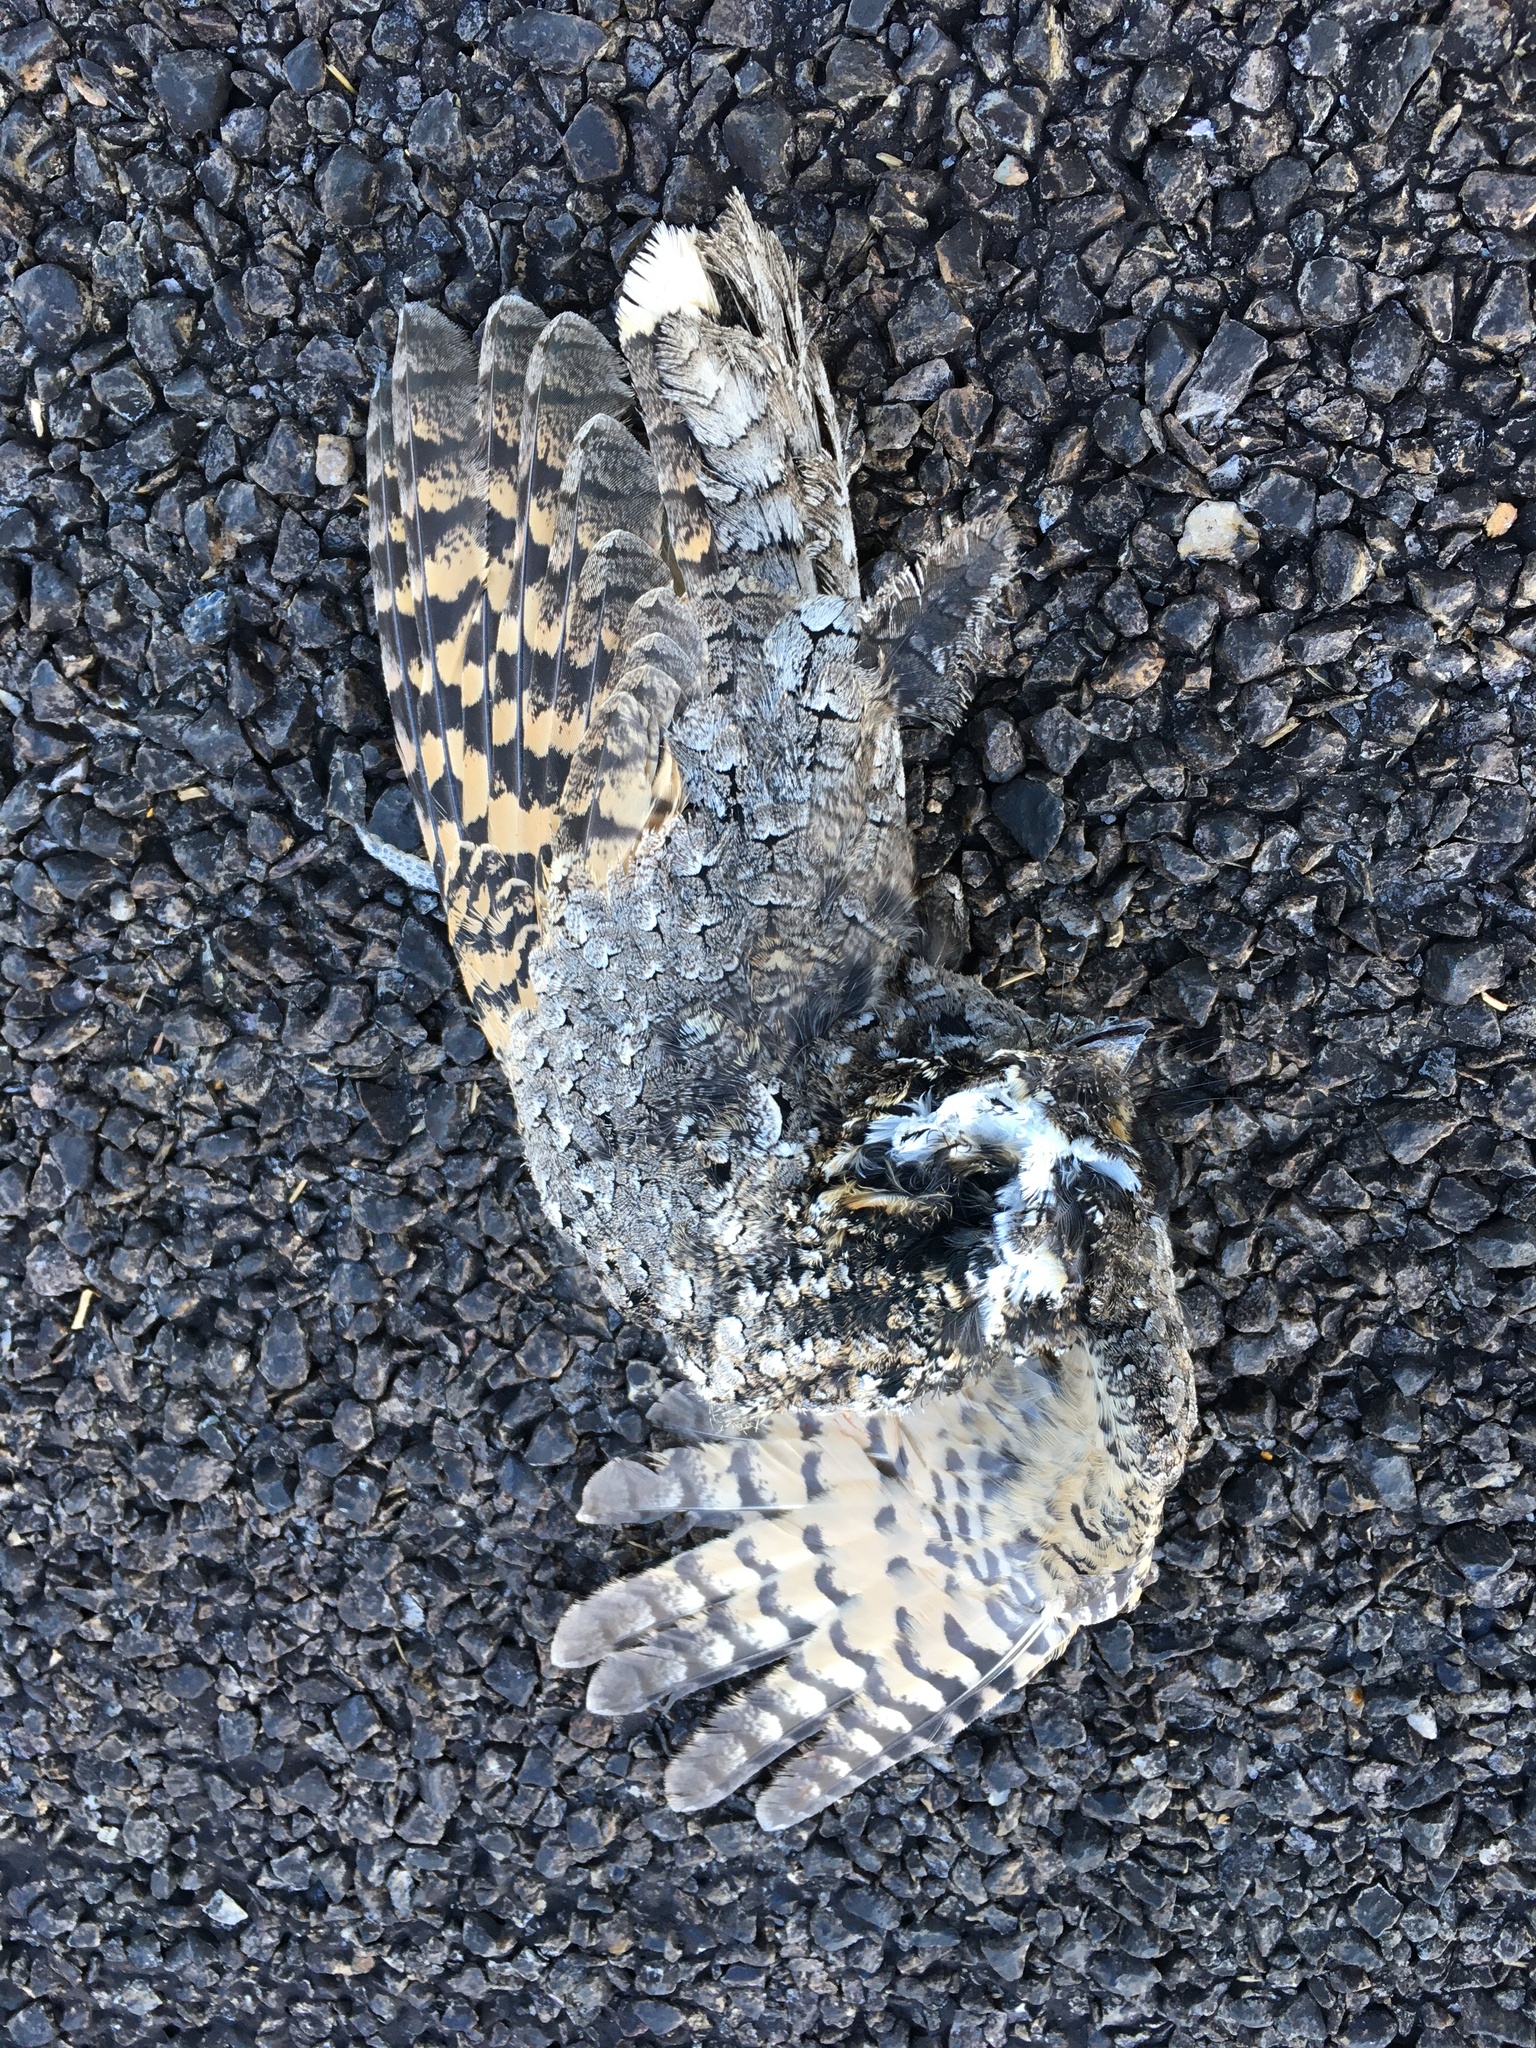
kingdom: Animalia
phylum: Chordata
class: Aves
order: Caprimulgiformes
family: Caprimulgidae
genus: Phalaenoptilus
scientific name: Phalaenoptilus nuttallii
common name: Common poorwill
